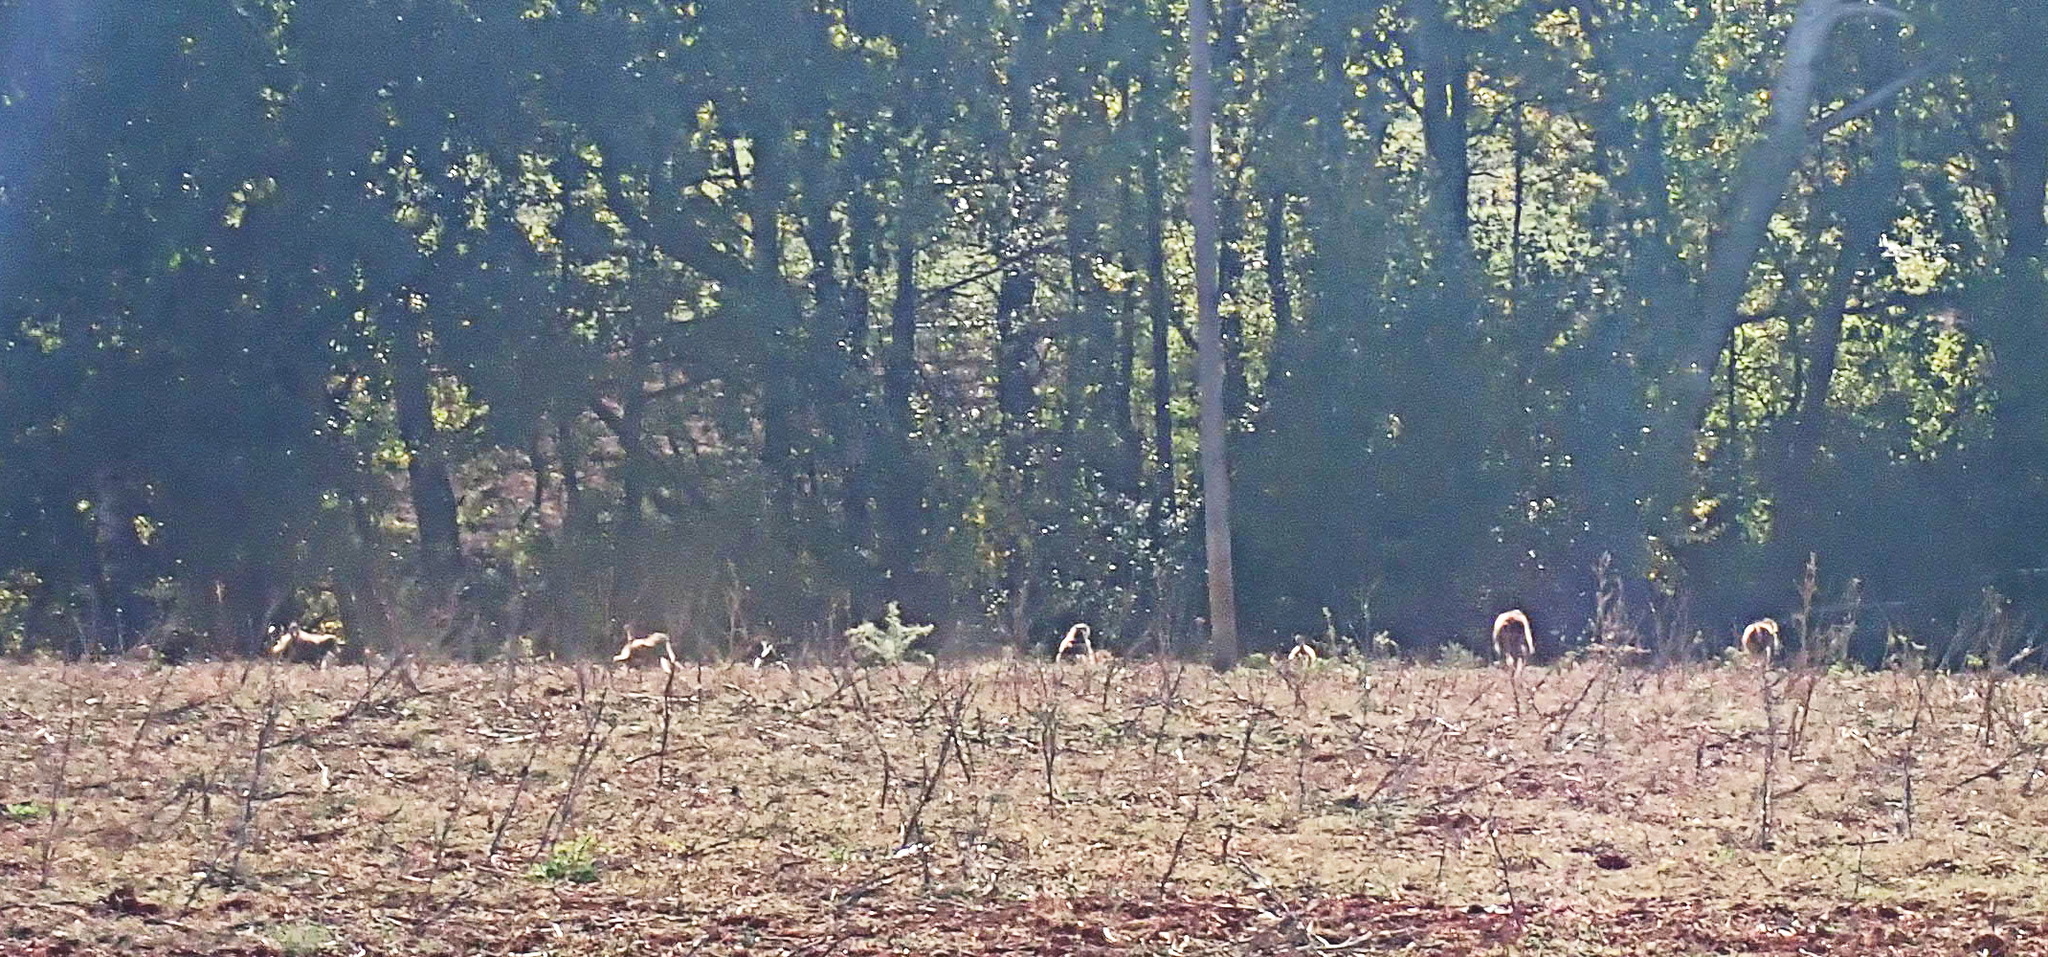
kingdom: Animalia
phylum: Chordata
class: Mammalia
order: Primates
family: Cercopithecidae
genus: Papio
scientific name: Papio ursinus
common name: Chacma baboon
